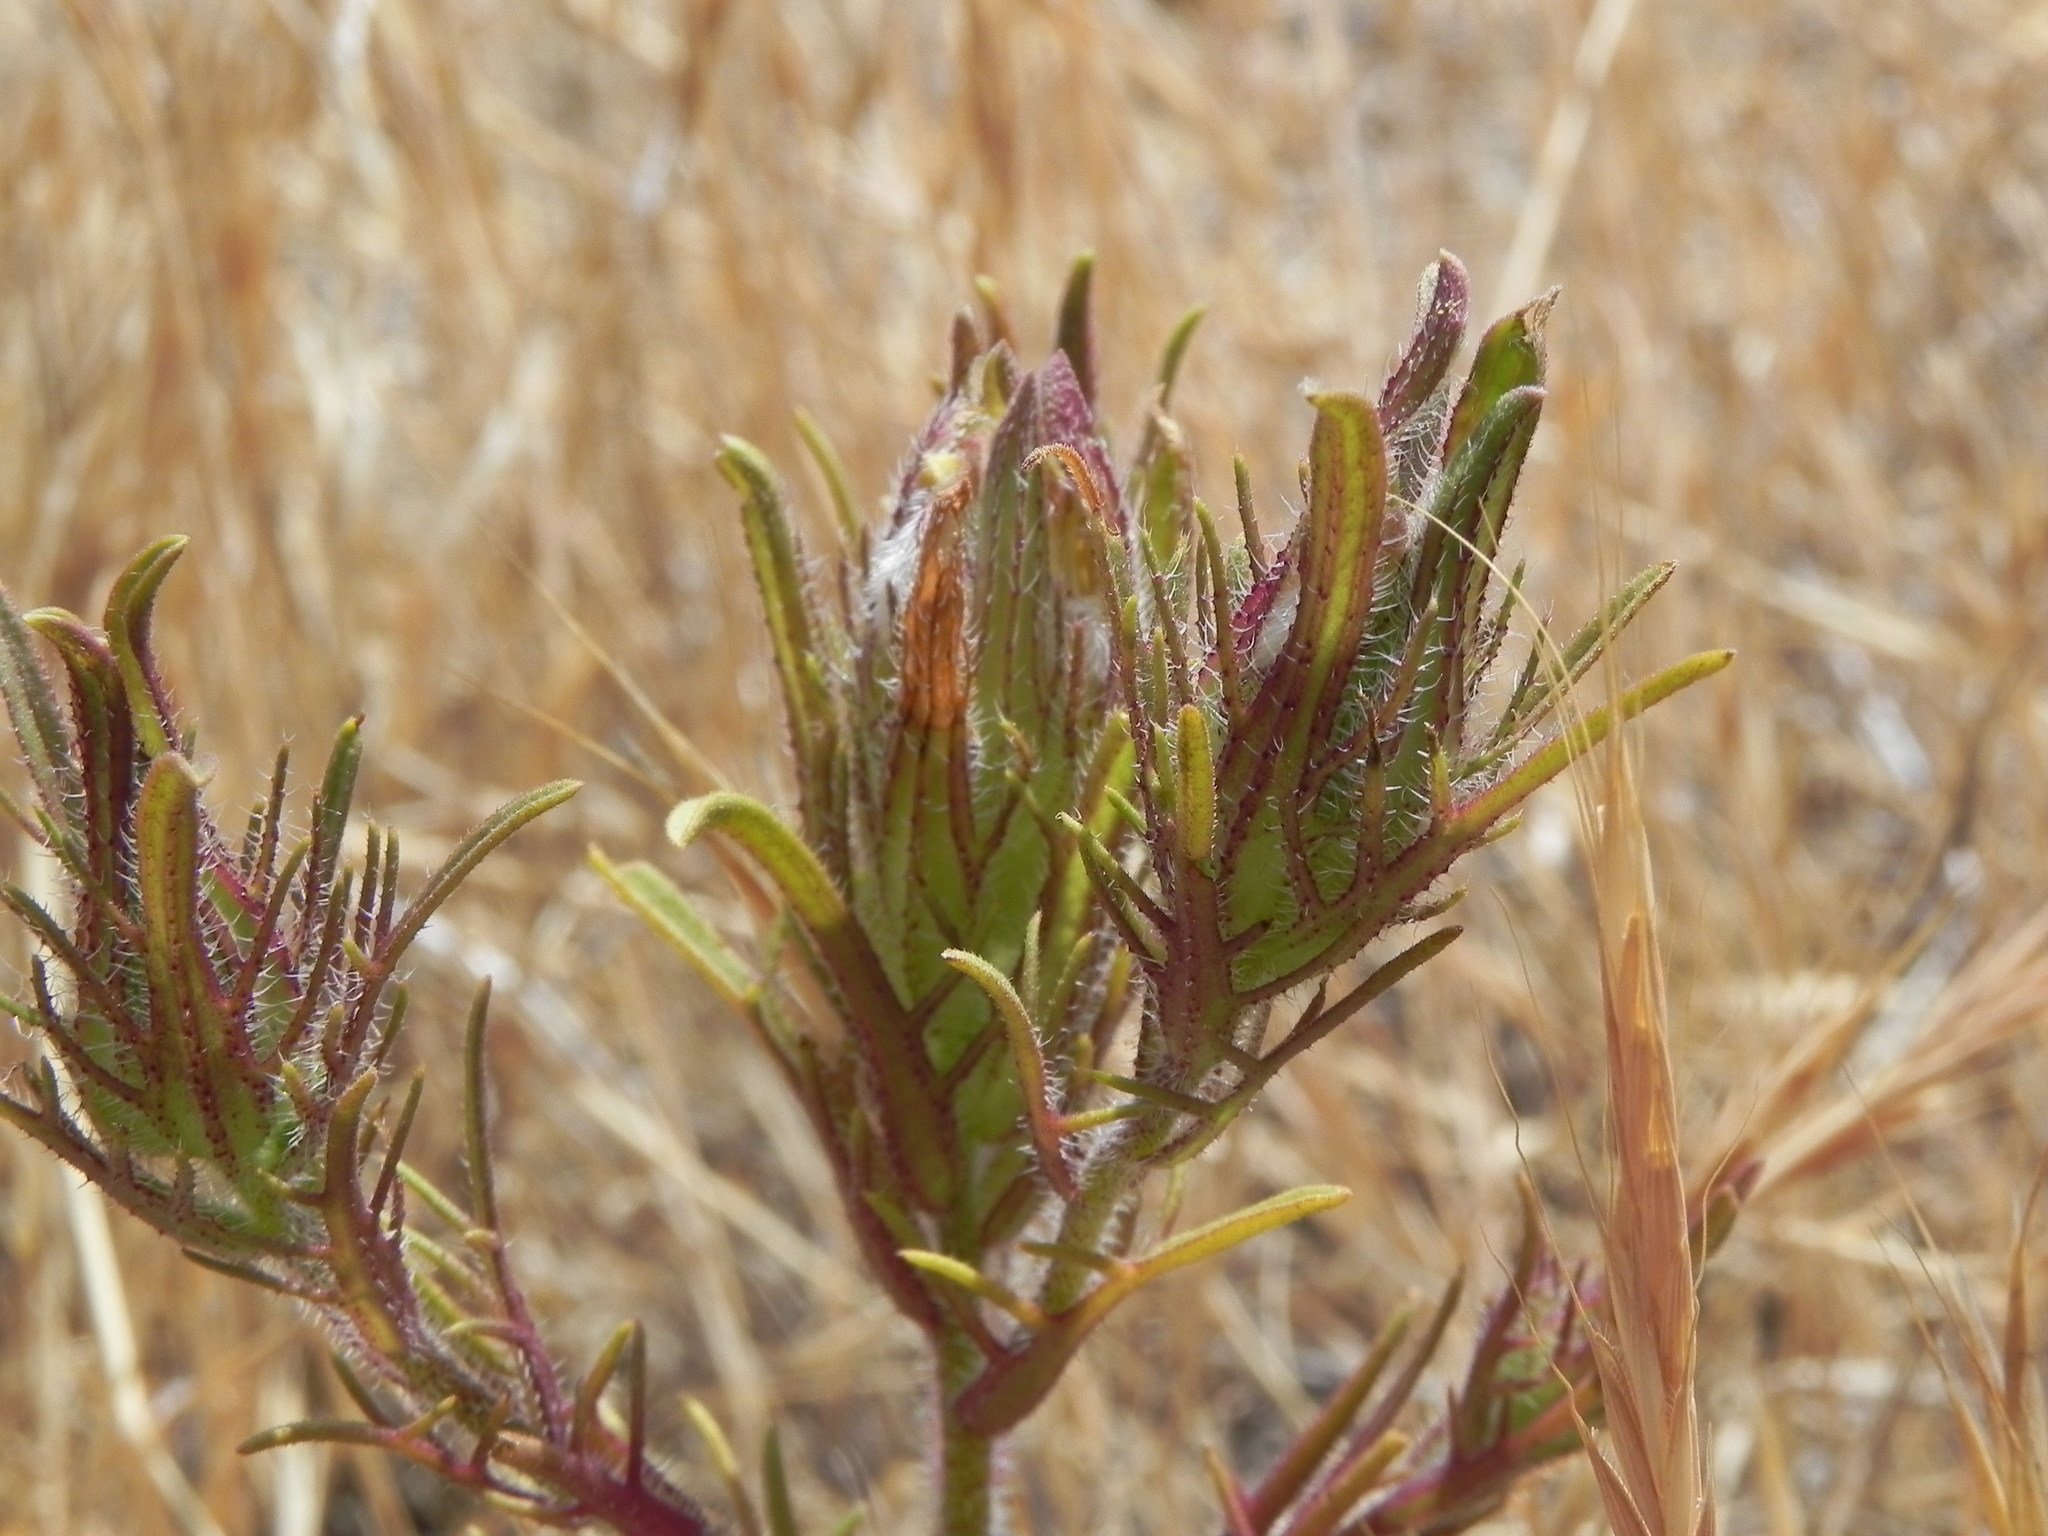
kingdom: Plantae
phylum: Tracheophyta
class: Magnoliopsida
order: Lamiales
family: Orobanchaceae
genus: Dicranostegia
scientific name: Dicranostegia orcuttiana
